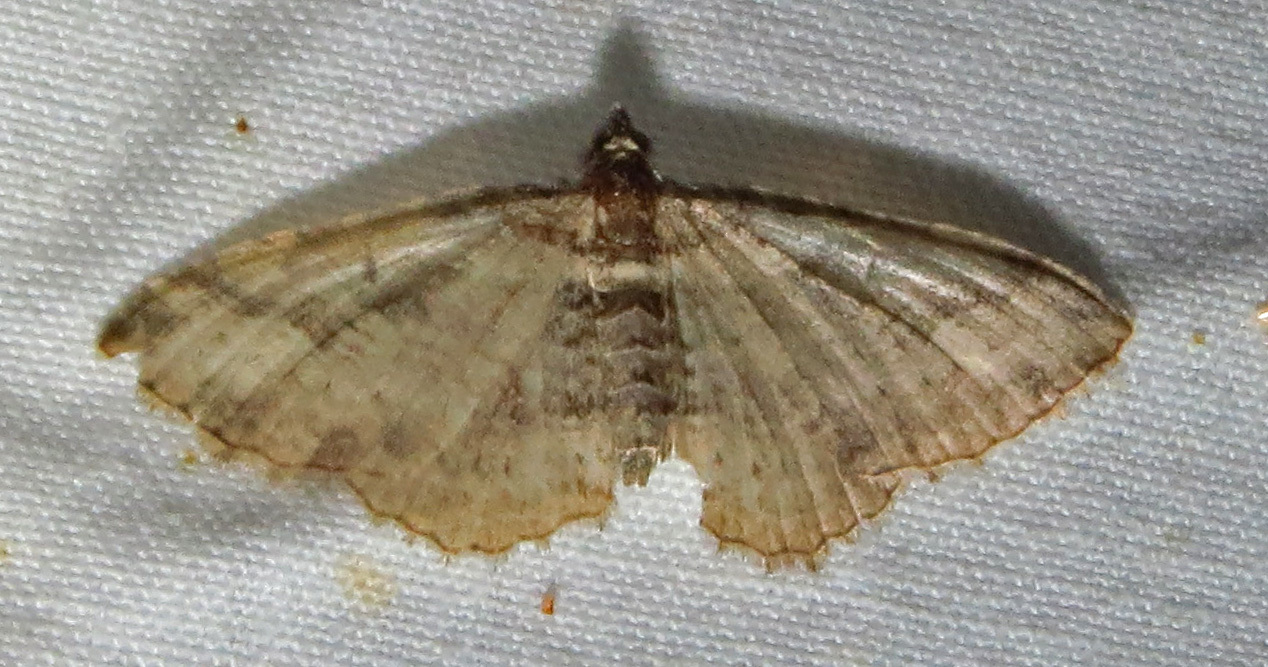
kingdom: Animalia
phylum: Arthropoda
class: Insecta
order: Lepidoptera
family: Geometridae
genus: Costaconvexa
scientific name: Costaconvexa centrostrigaria
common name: Bent-line carpet
